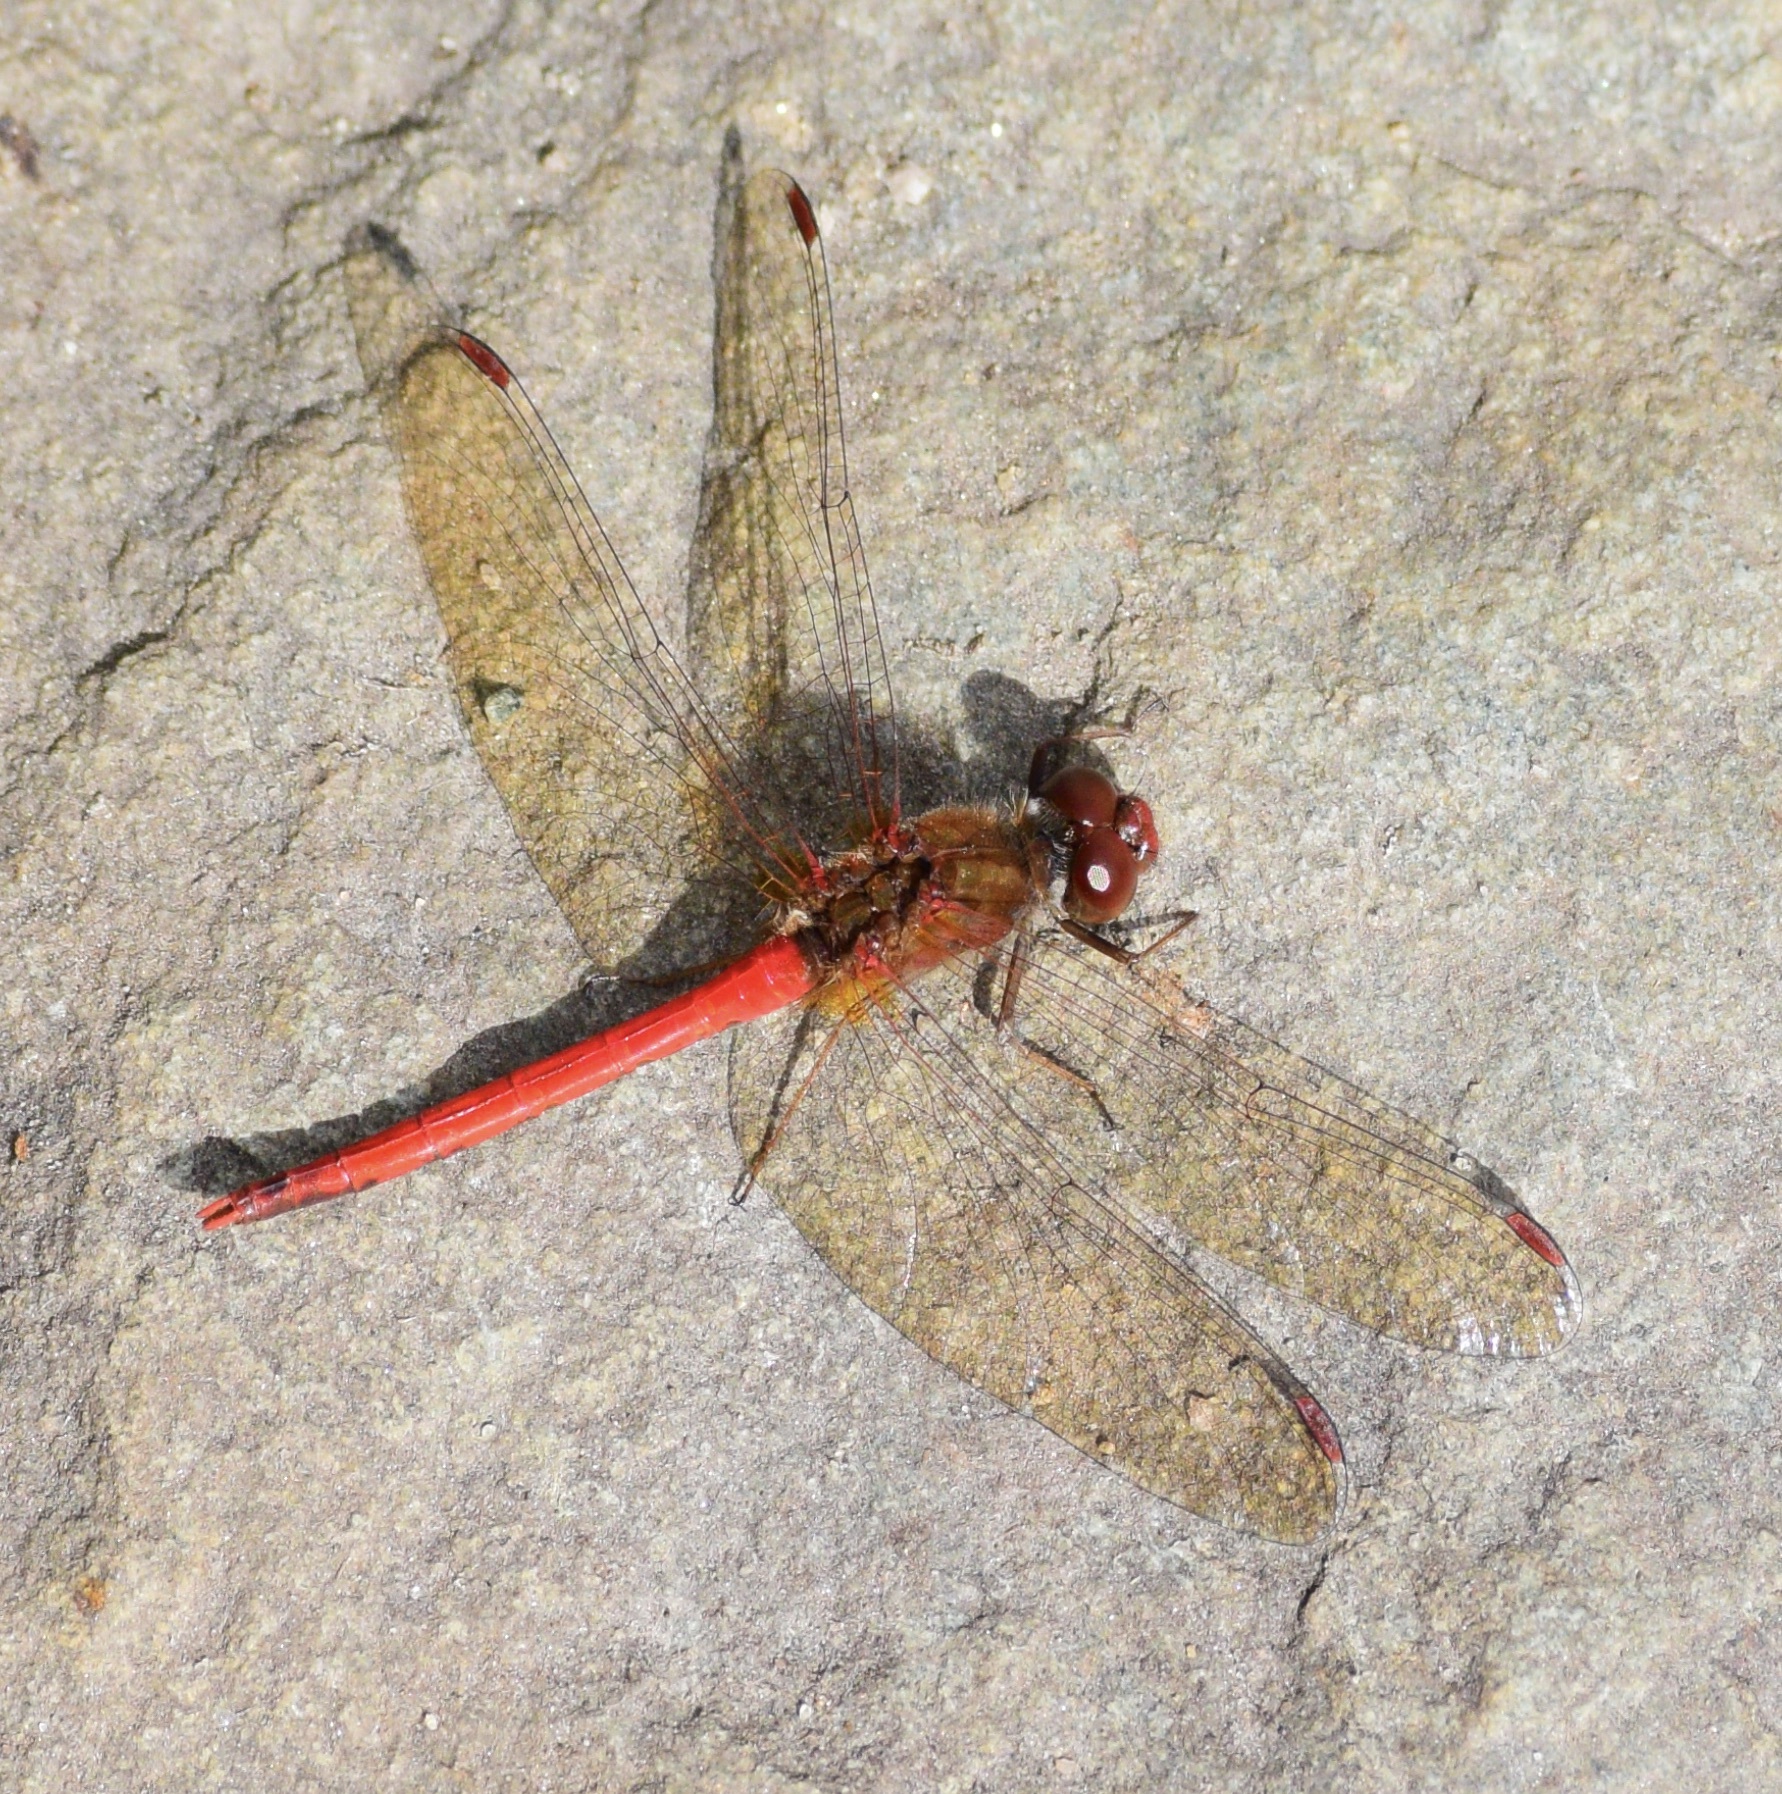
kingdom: Animalia
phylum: Arthropoda
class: Insecta
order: Odonata
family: Libellulidae
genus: Sympetrum
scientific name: Sympetrum vicinum
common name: Autumn meadowhawk
